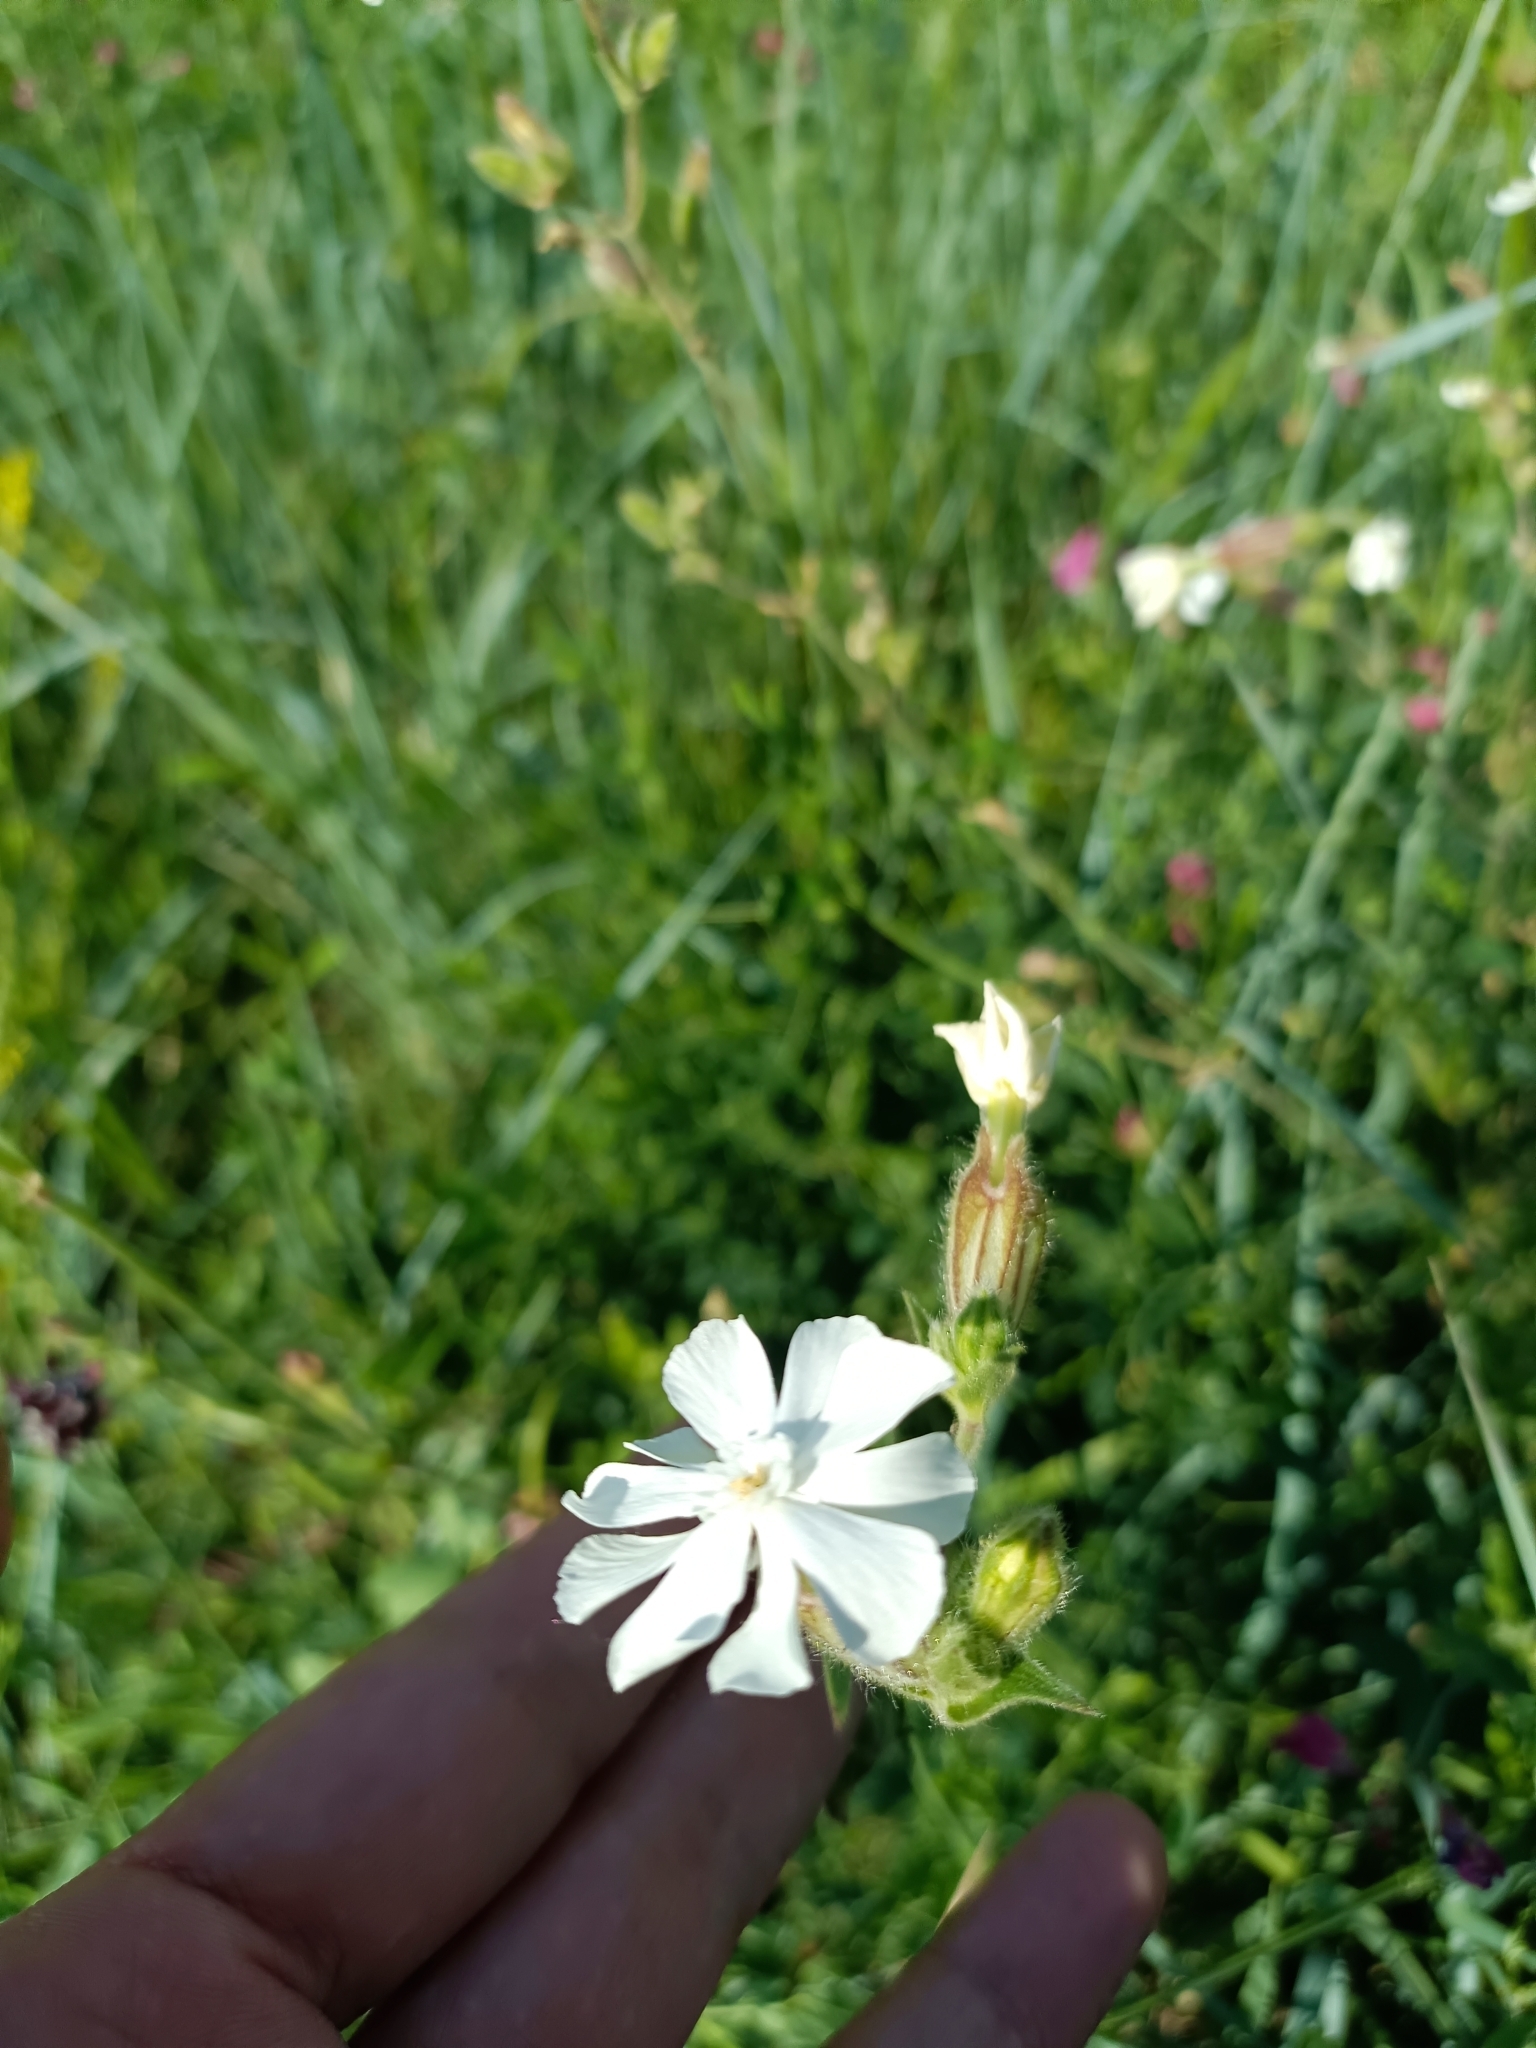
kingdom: Plantae
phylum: Tracheophyta
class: Magnoliopsida
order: Caryophyllales
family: Caryophyllaceae
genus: Silene
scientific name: Silene latifolia
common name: White campion
